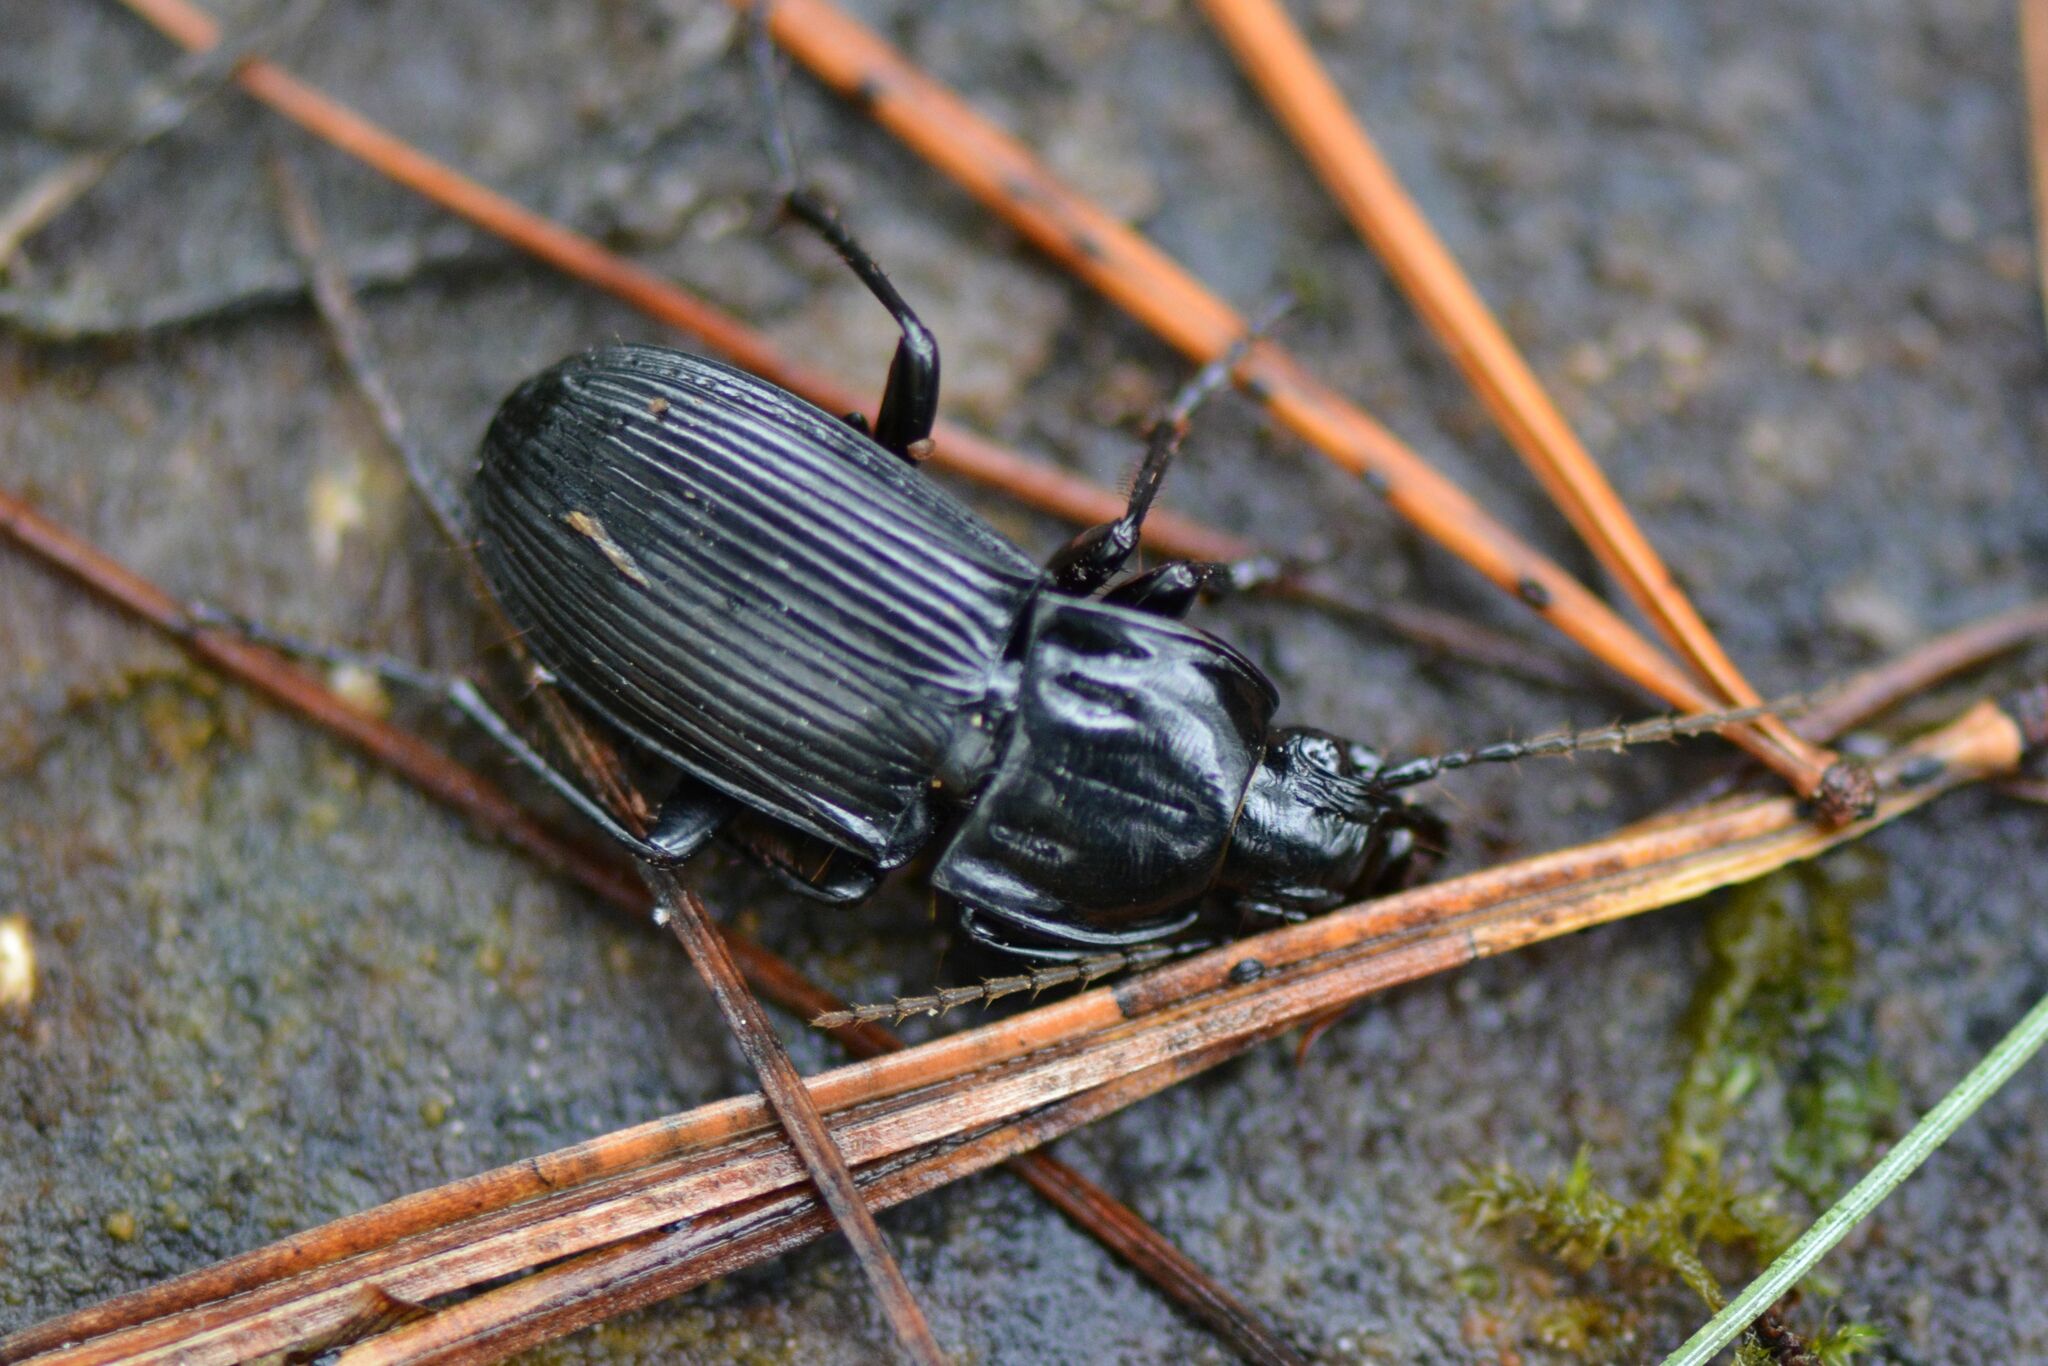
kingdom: Animalia
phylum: Arthropoda
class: Insecta
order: Coleoptera
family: Carabidae
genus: Abax
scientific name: Abax parallelepipedus
